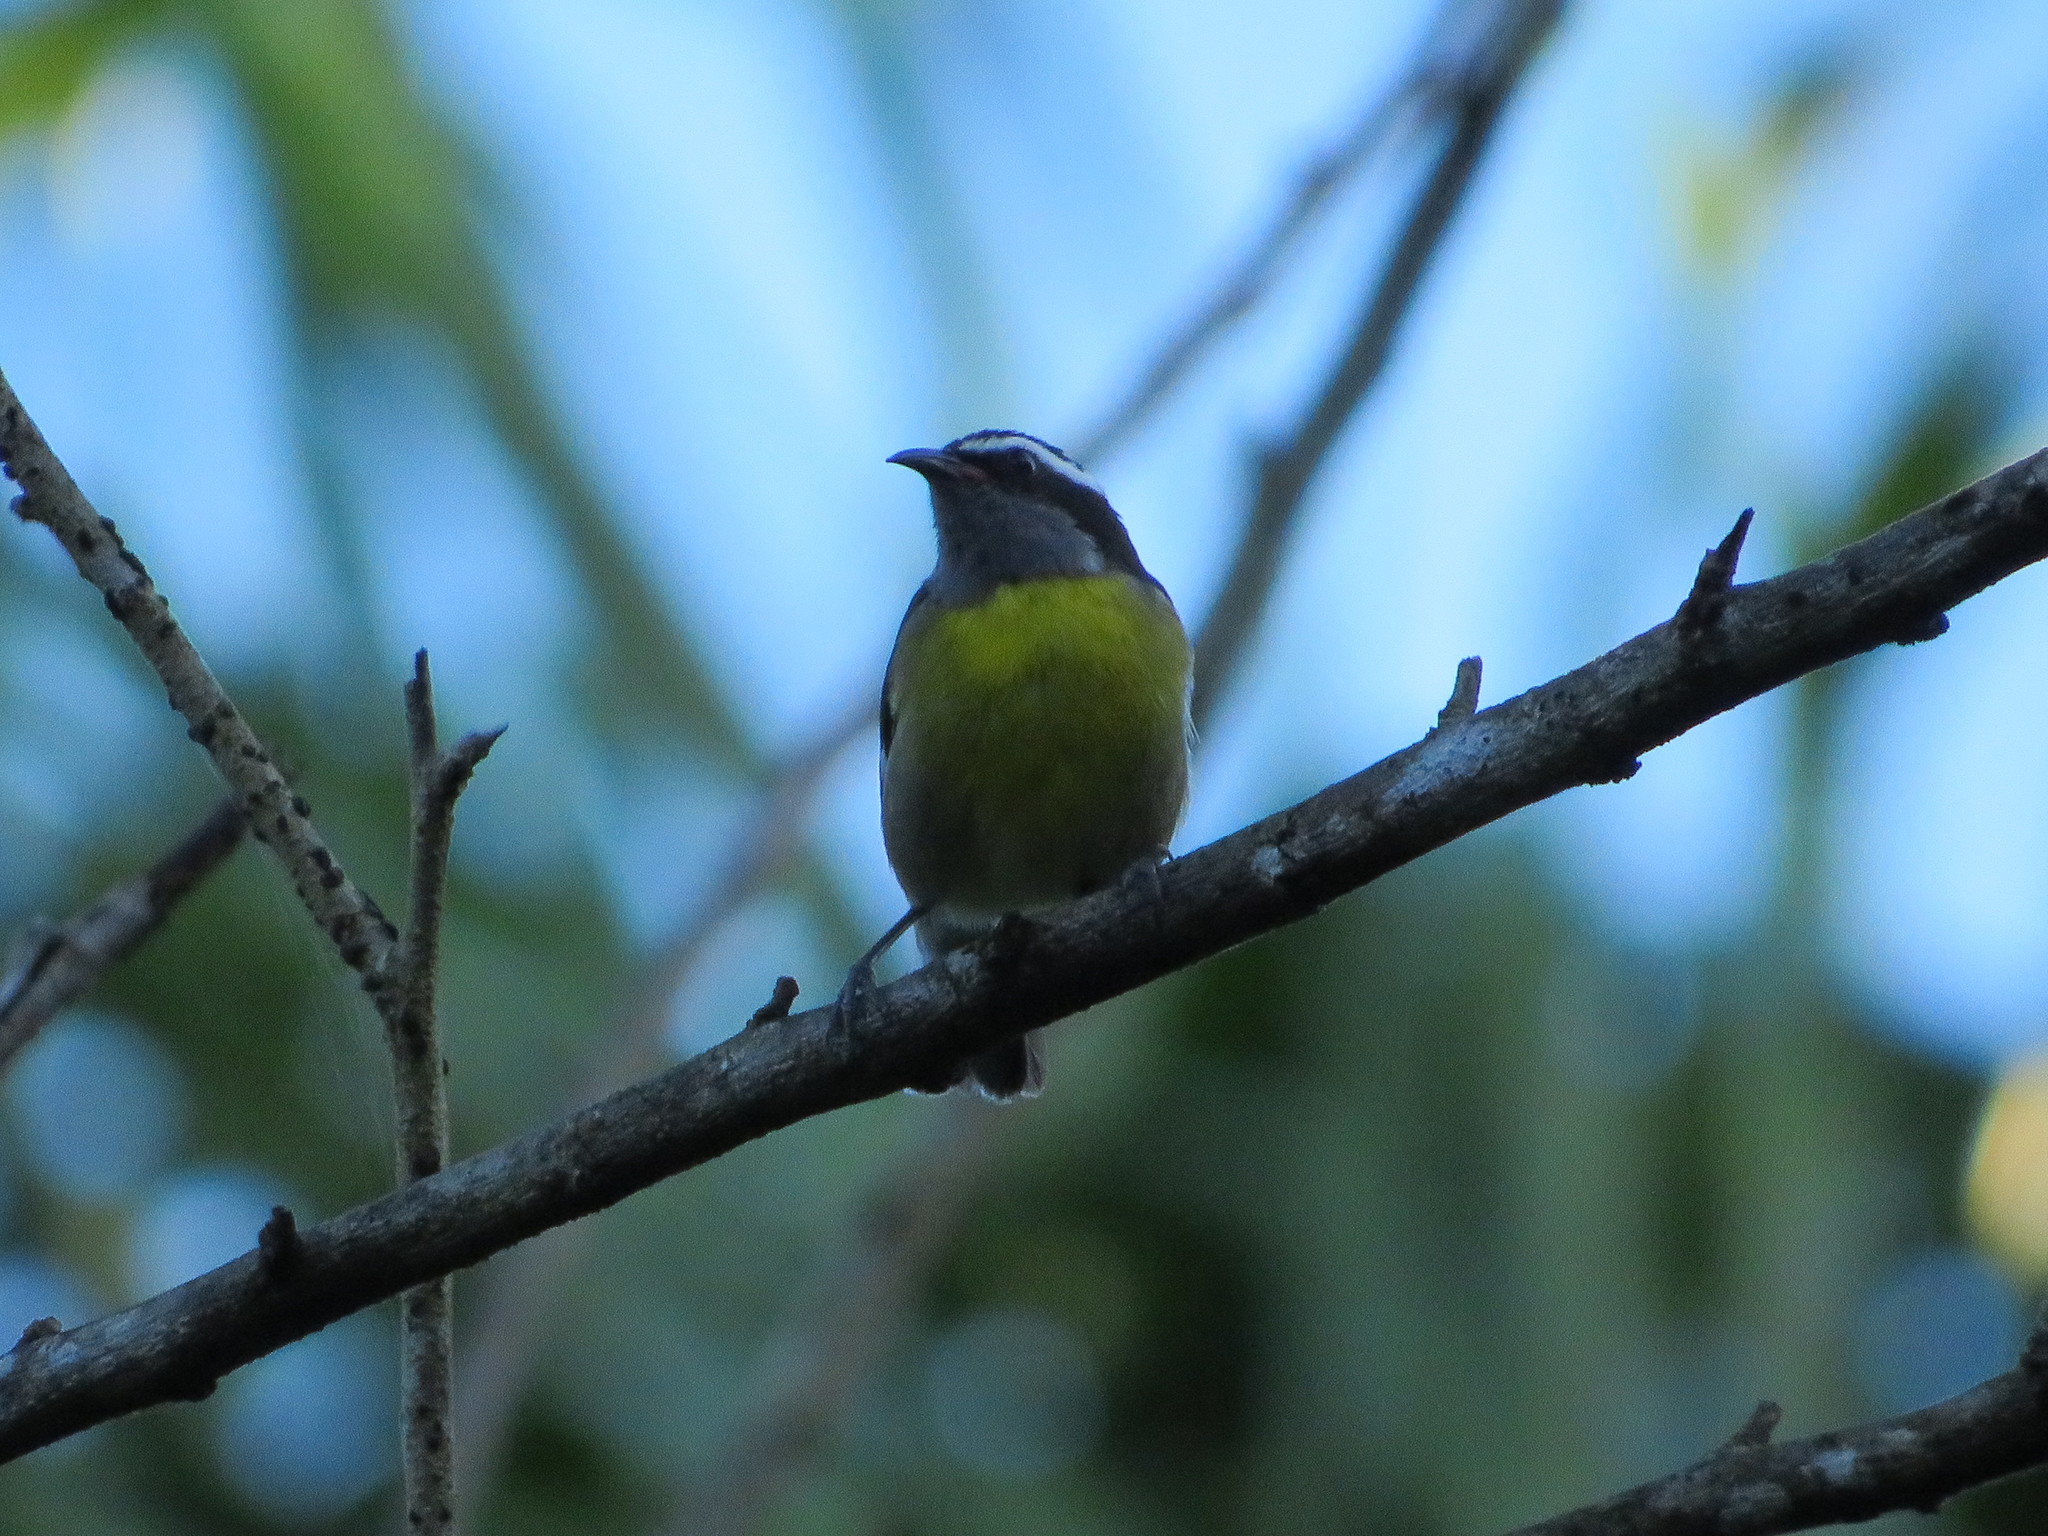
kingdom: Animalia
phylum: Chordata
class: Aves
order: Passeriformes
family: Thraupidae
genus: Coereba
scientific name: Coereba flaveola
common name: Bananaquit
